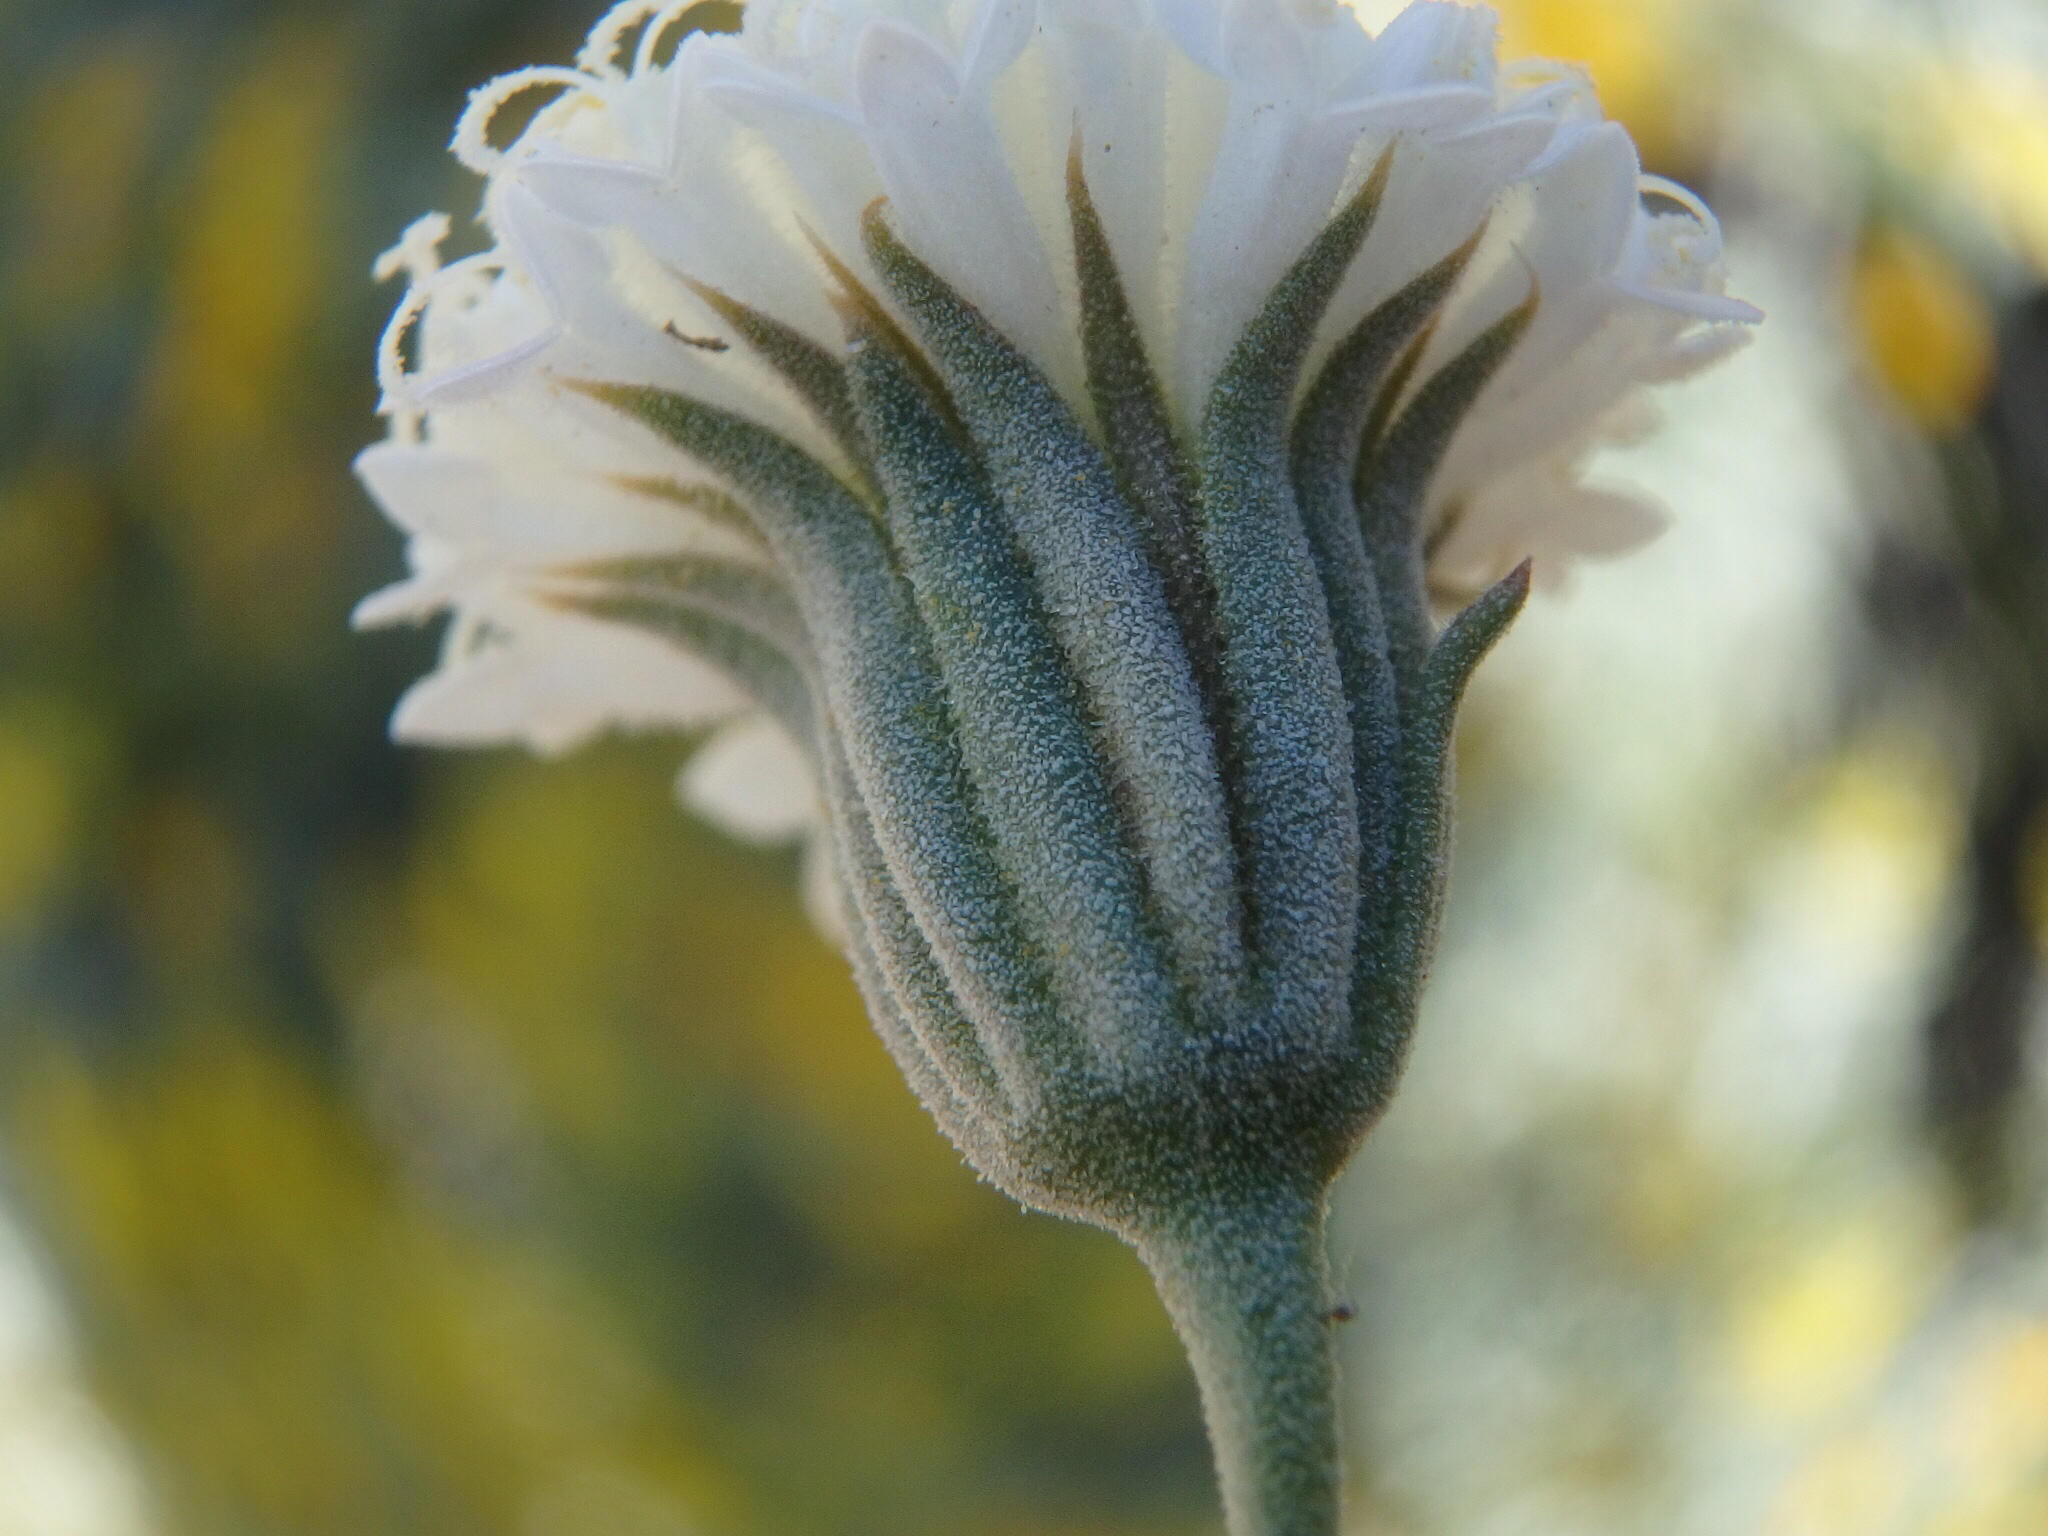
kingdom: Plantae
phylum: Tracheophyta
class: Magnoliopsida
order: Asterales
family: Asteraceae
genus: Chaenactis
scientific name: Chaenactis carphoclinia
